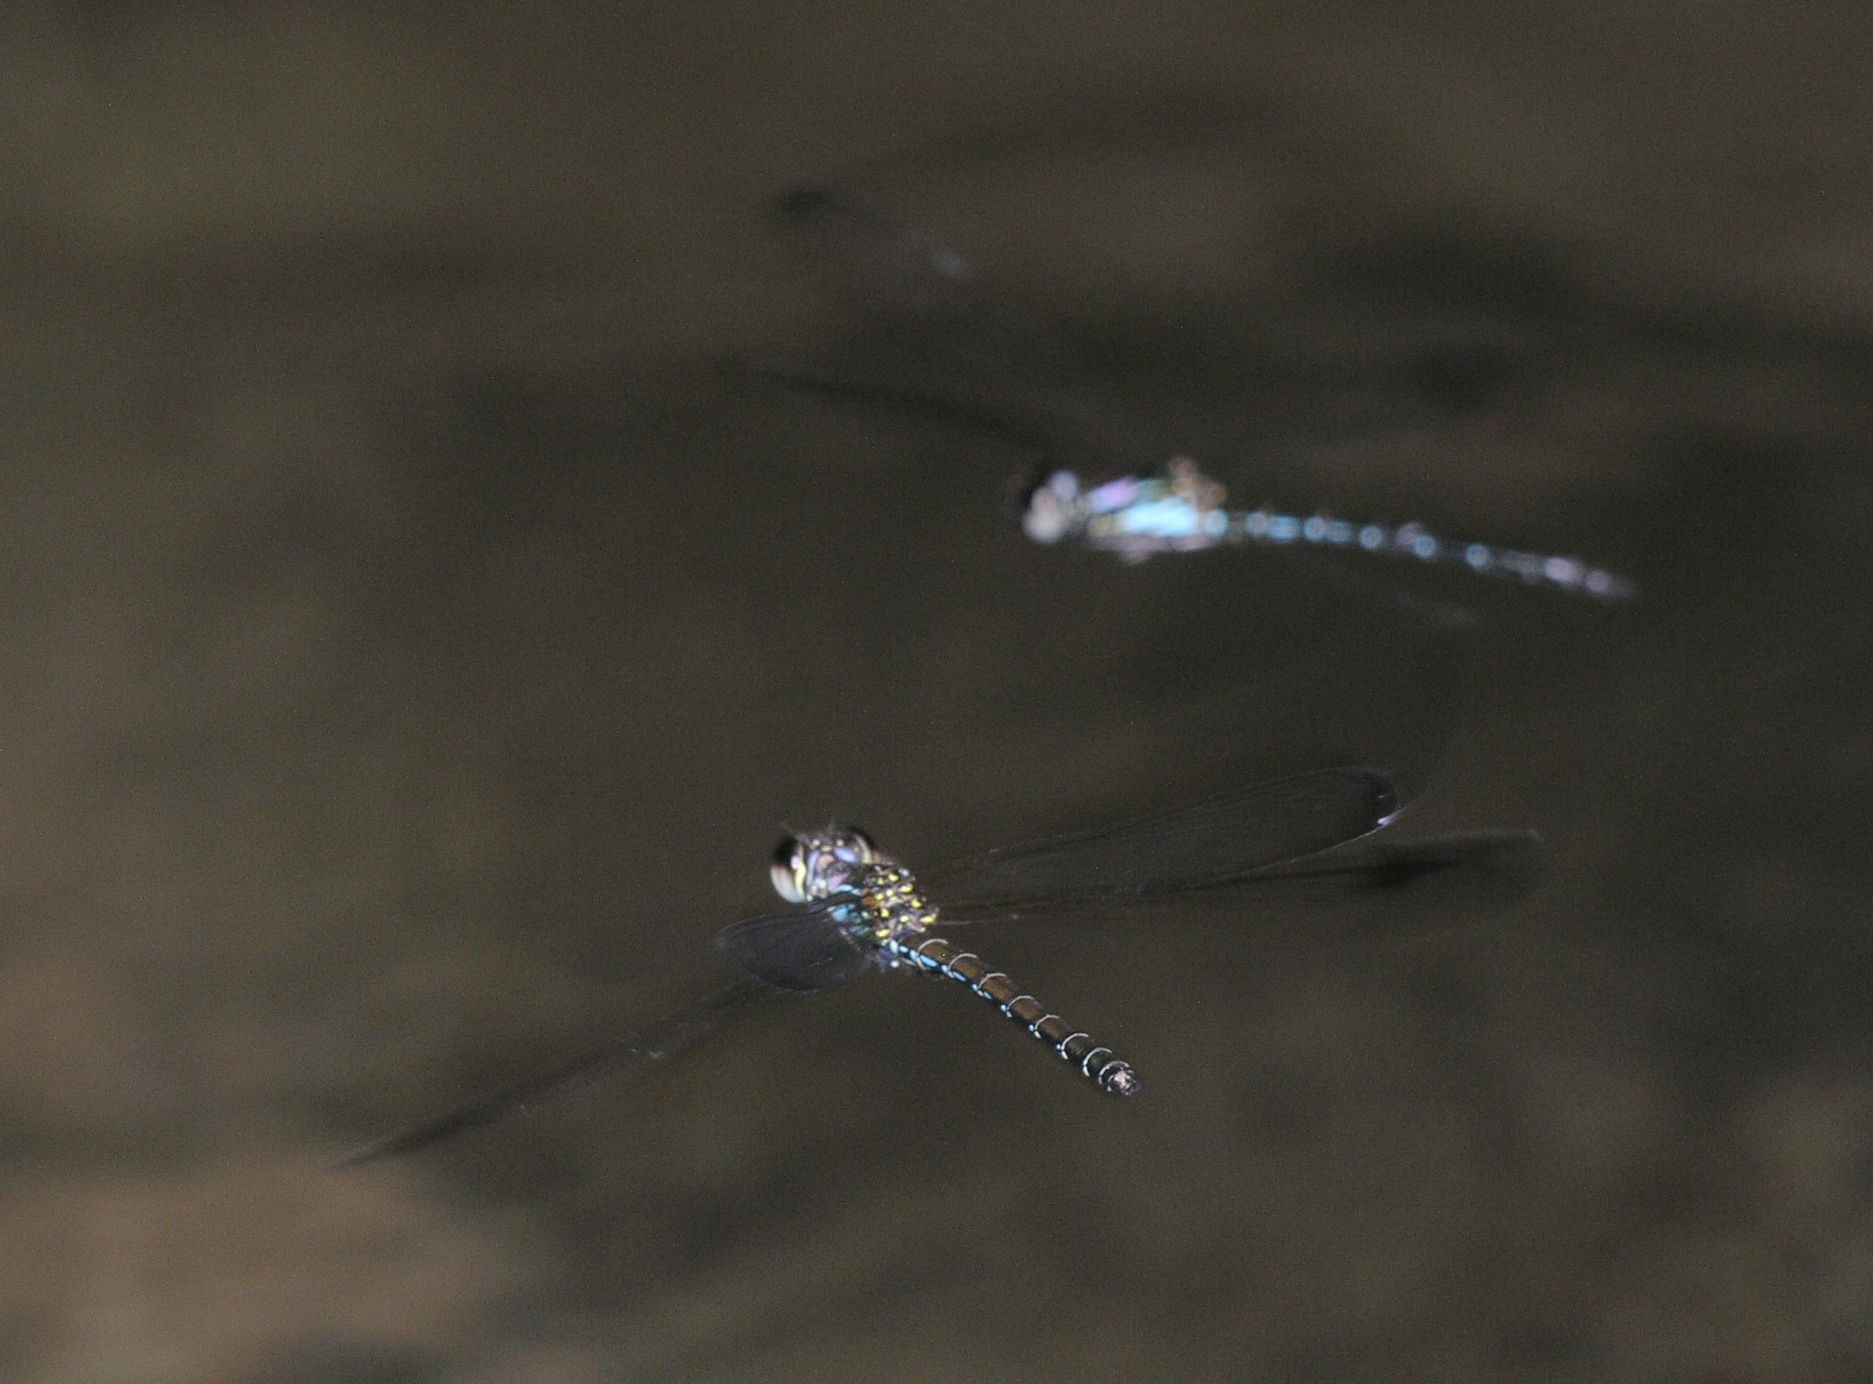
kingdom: Animalia
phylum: Arthropoda
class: Insecta
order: Odonata
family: Chlorocyphidae
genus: Heliocypha
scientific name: Heliocypha biforata
